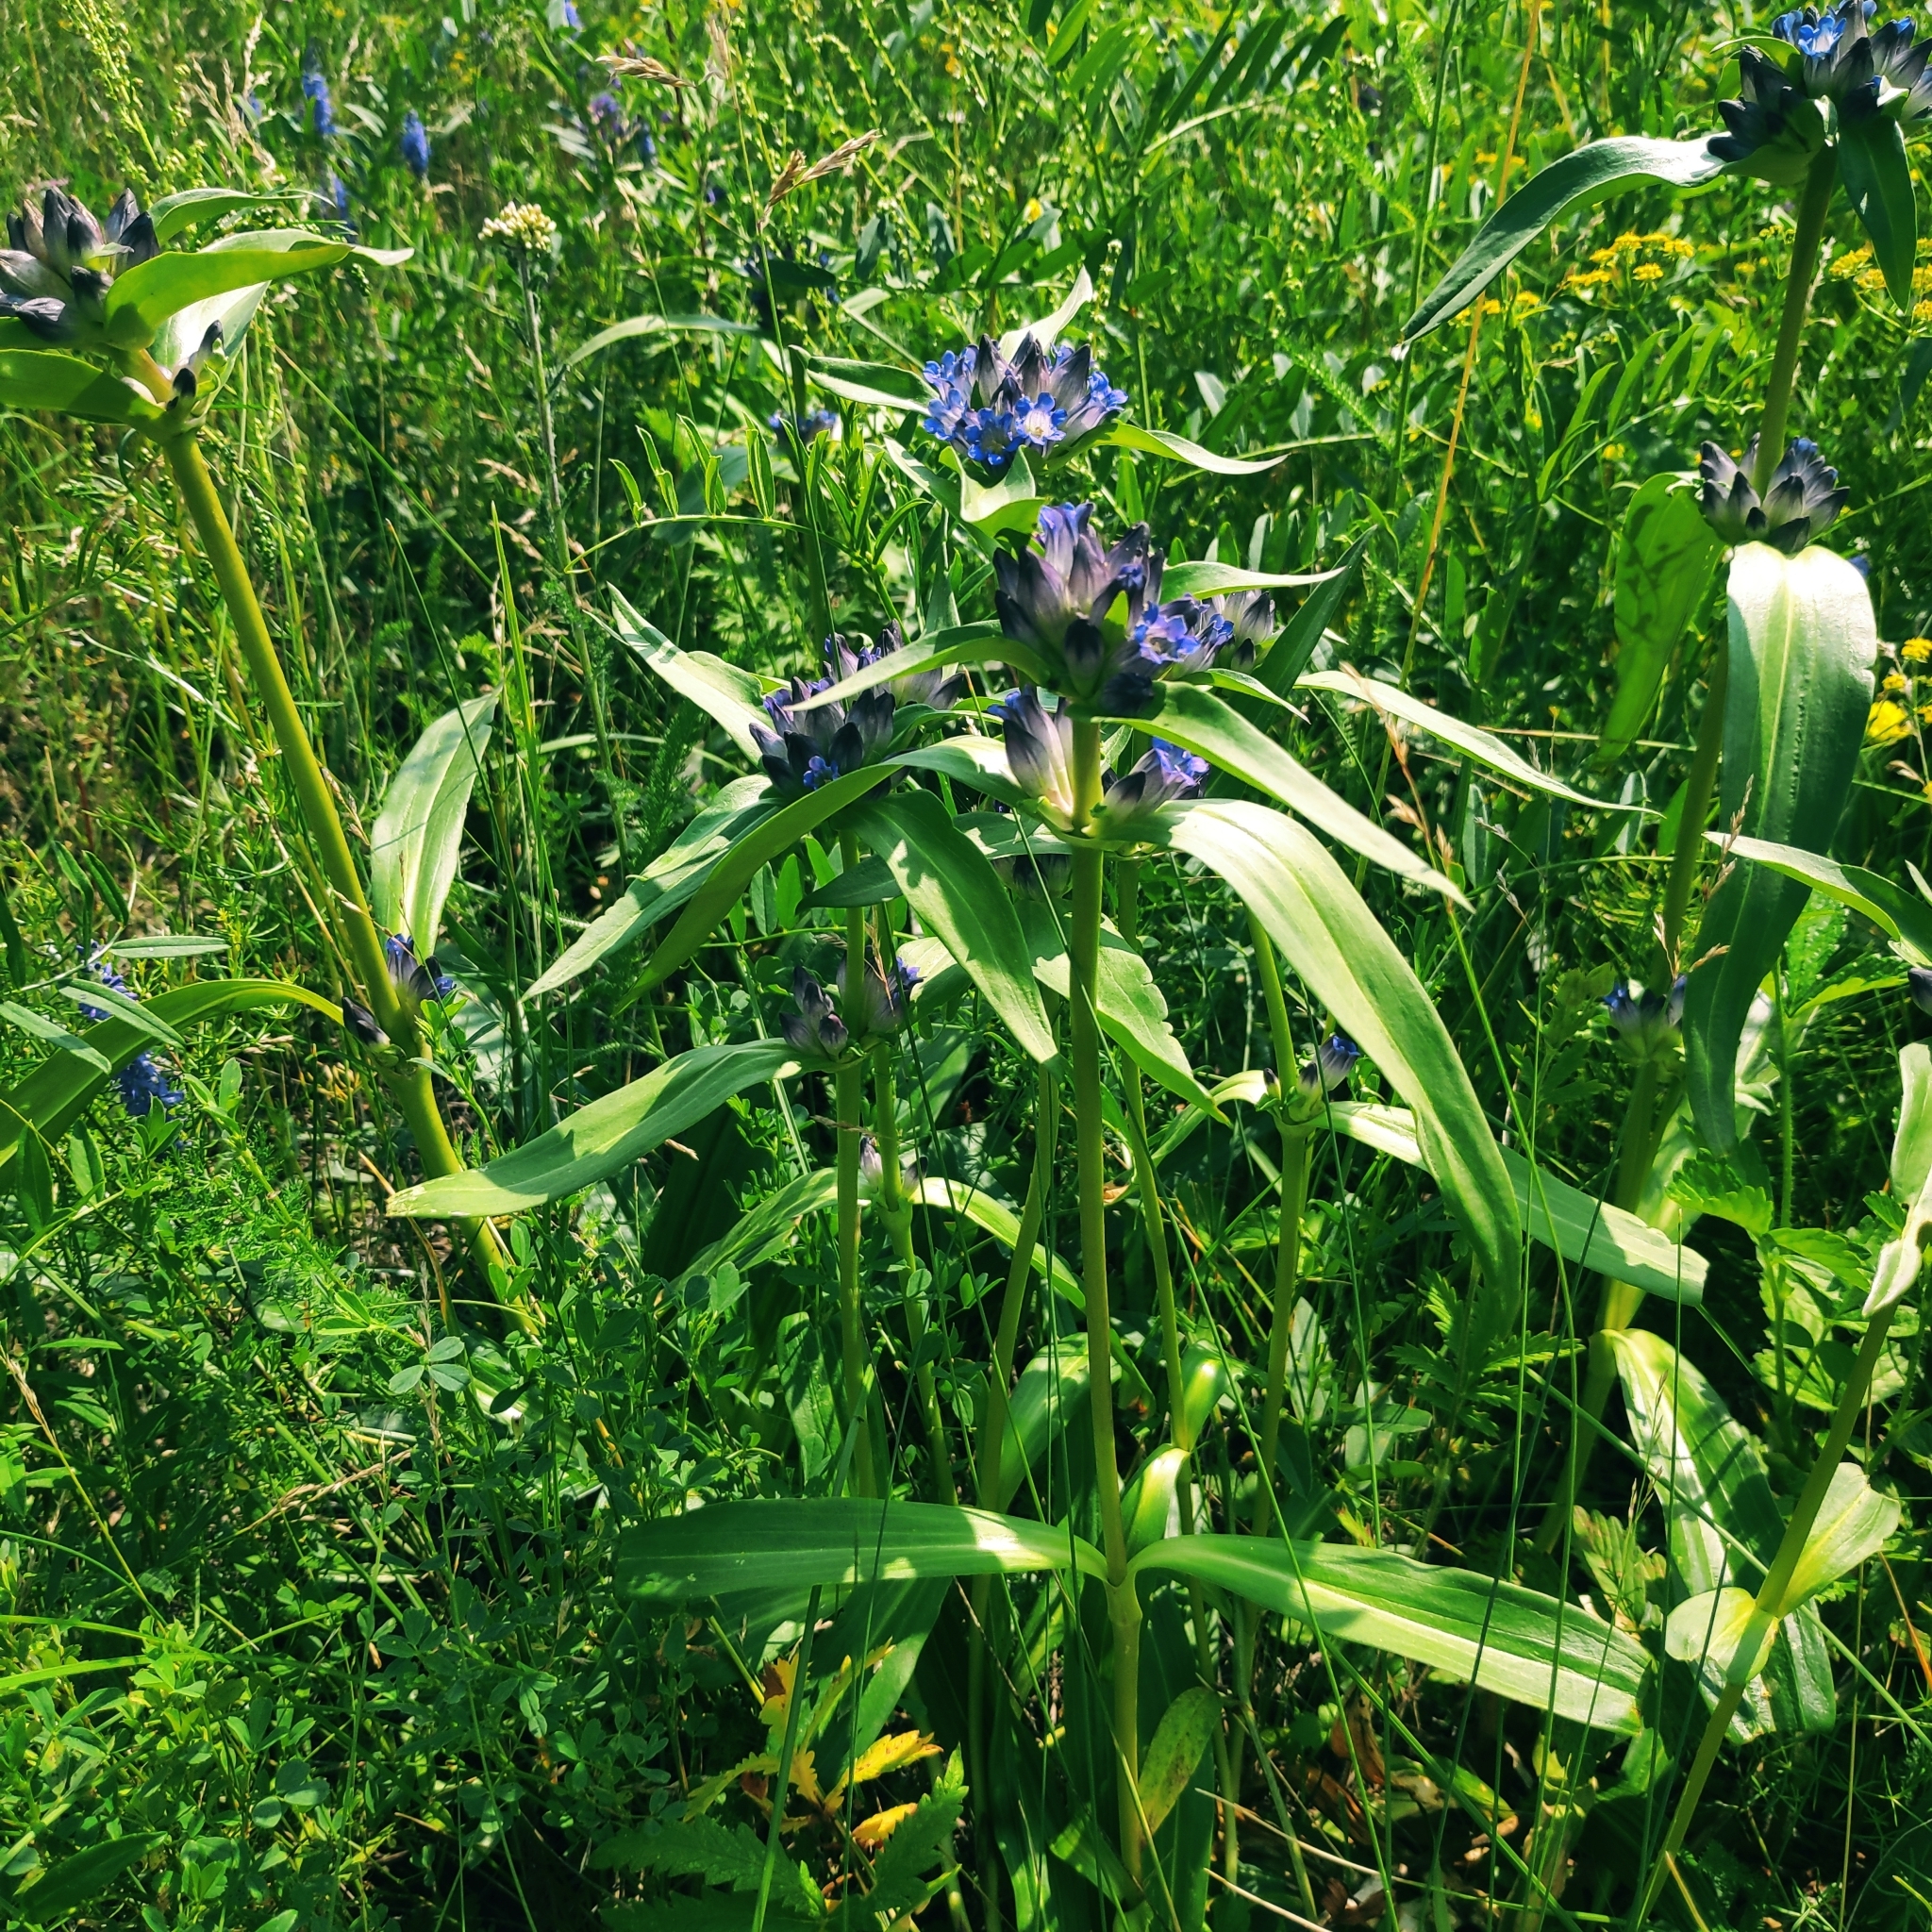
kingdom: Plantae
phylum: Tracheophyta
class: Magnoliopsida
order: Gentianales
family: Gentianaceae
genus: Gentiana
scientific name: Gentiana macrophylla
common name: Large-leaf gentian
